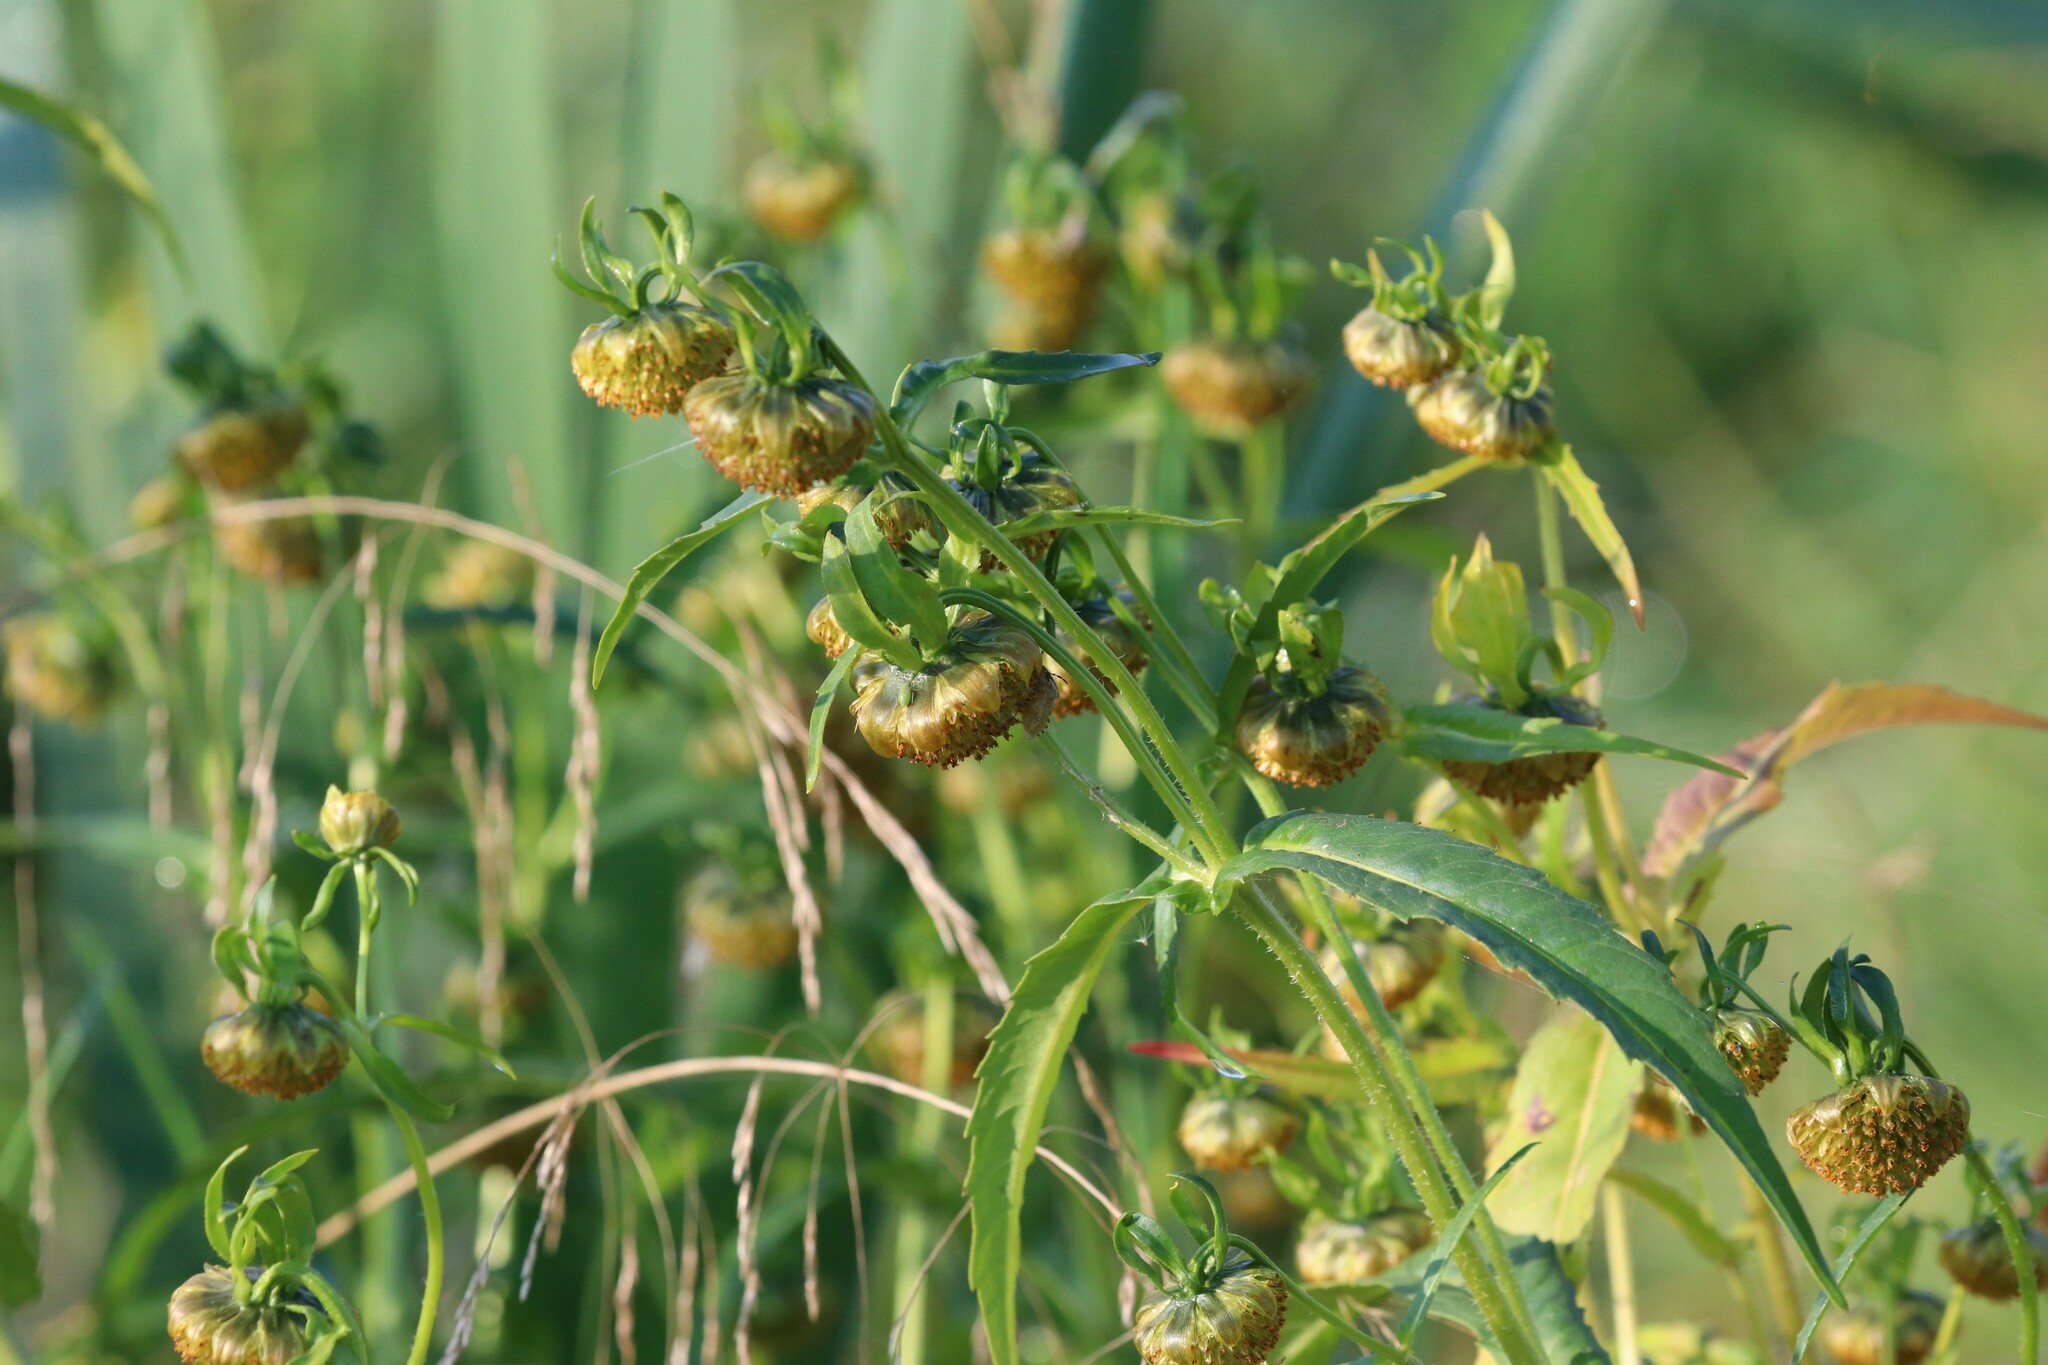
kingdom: Plantae
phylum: Tracheophyta
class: Magnoliopsida
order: Asterales
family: Asteraceae
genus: Bidens
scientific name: Bidens cernua
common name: Nodding bur-marigold
